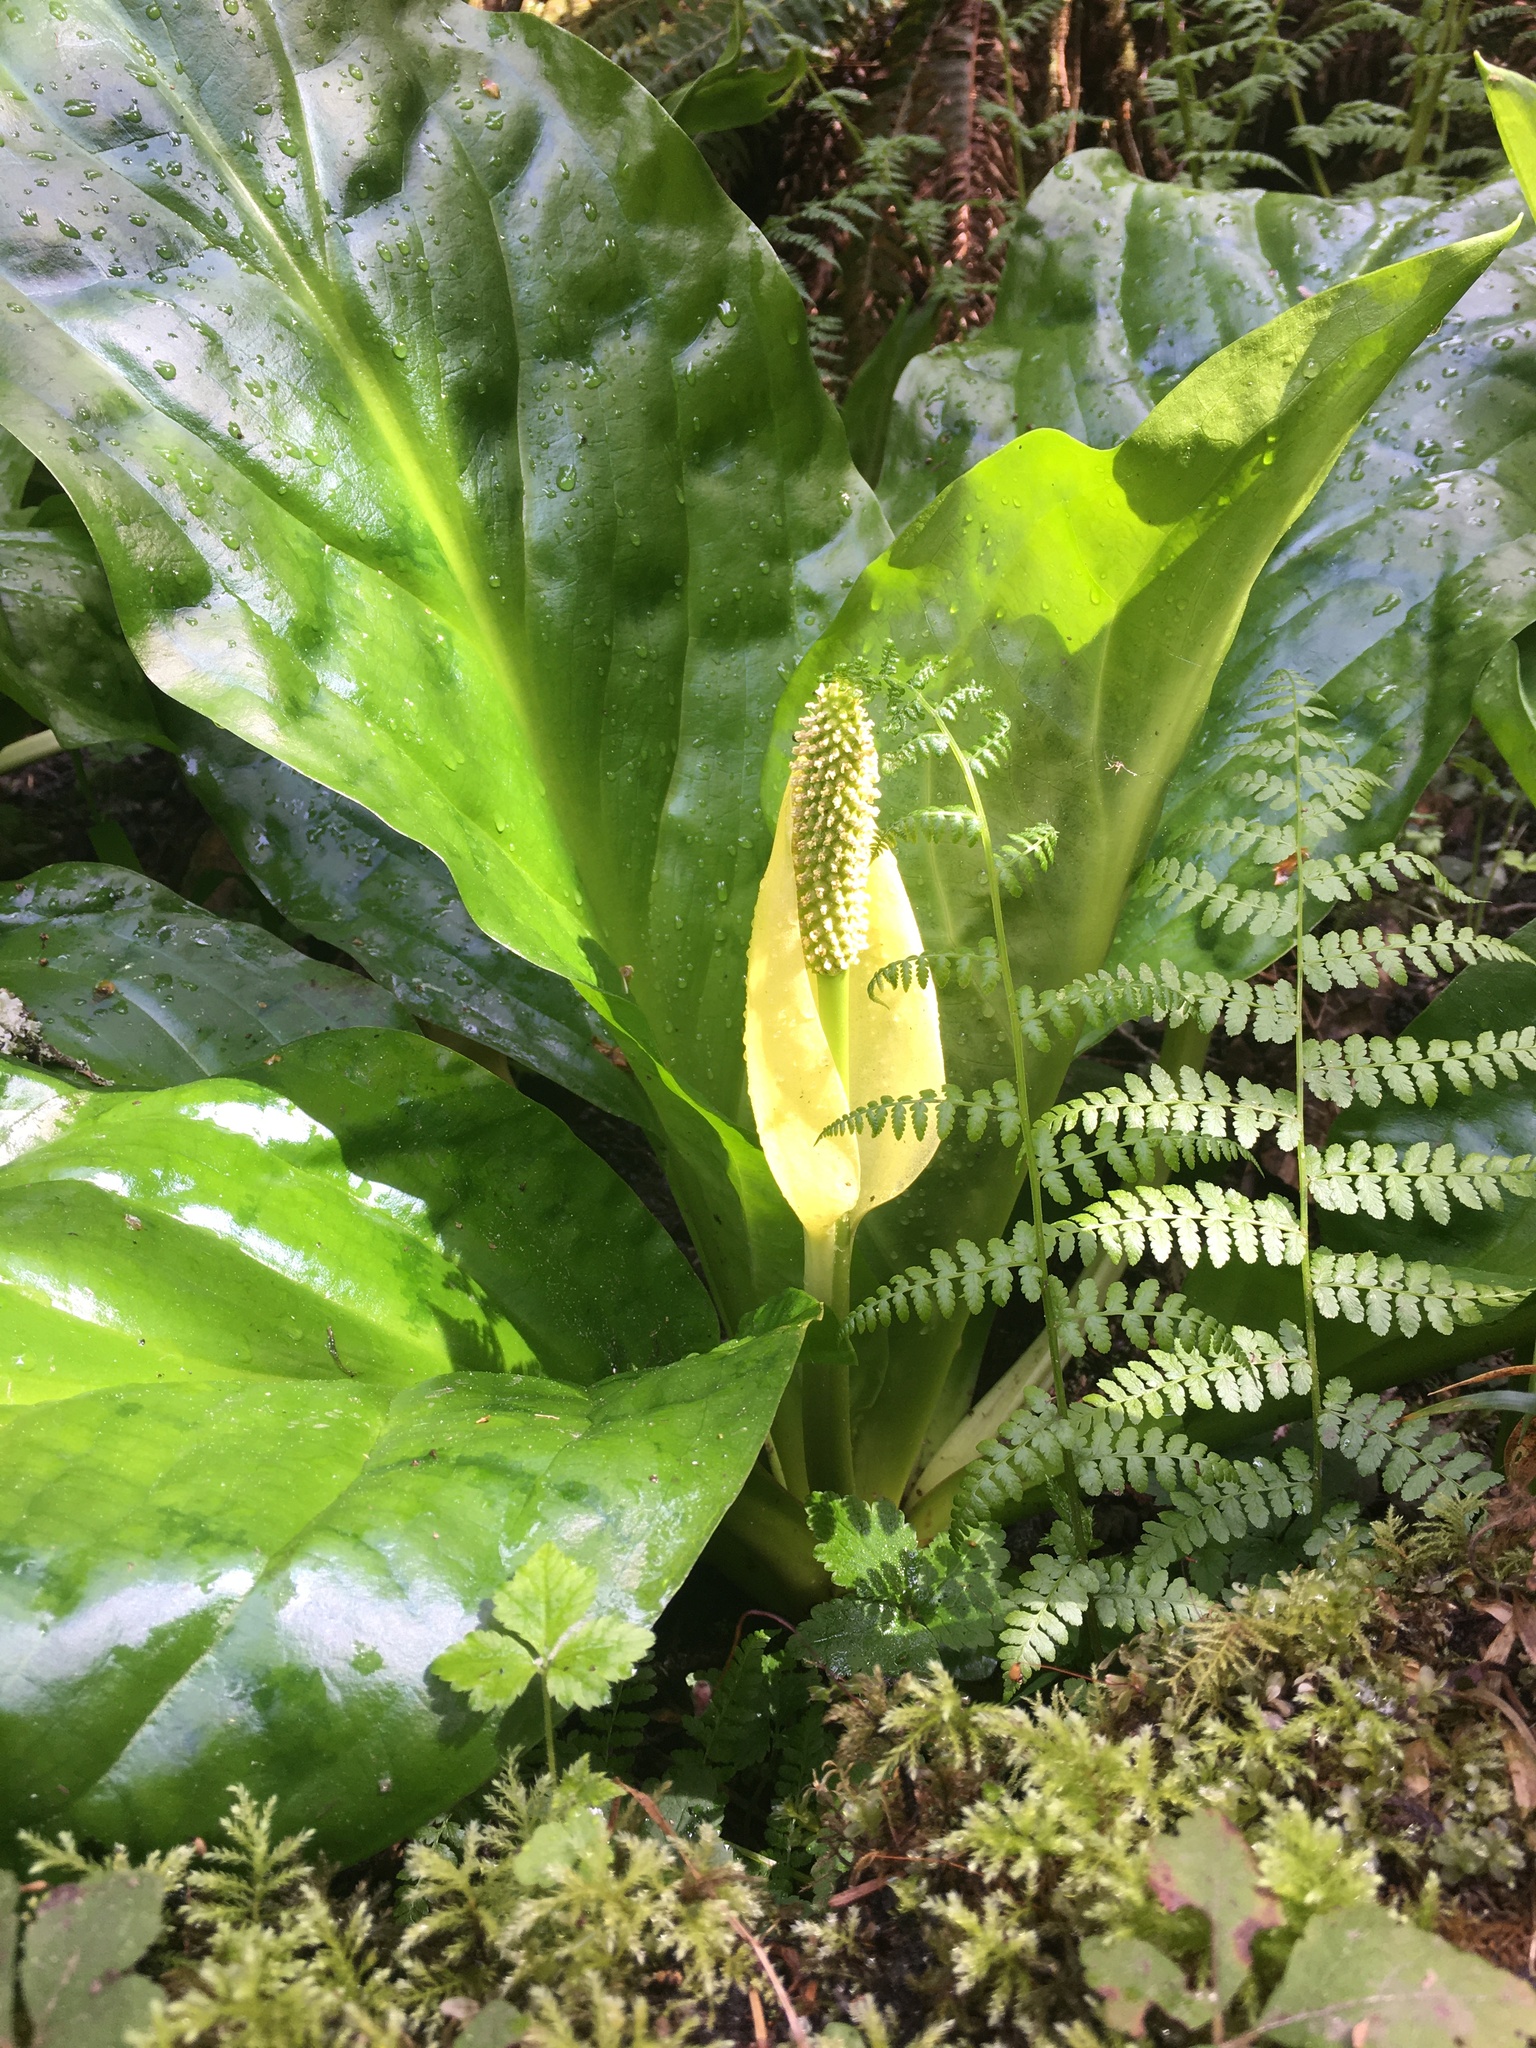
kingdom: Plantae
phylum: Tracheophyta
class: Liliopsida
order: Alismatales
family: Araceae
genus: Lysichiton
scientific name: Lysichiton americanus
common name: American skunk cabbage
